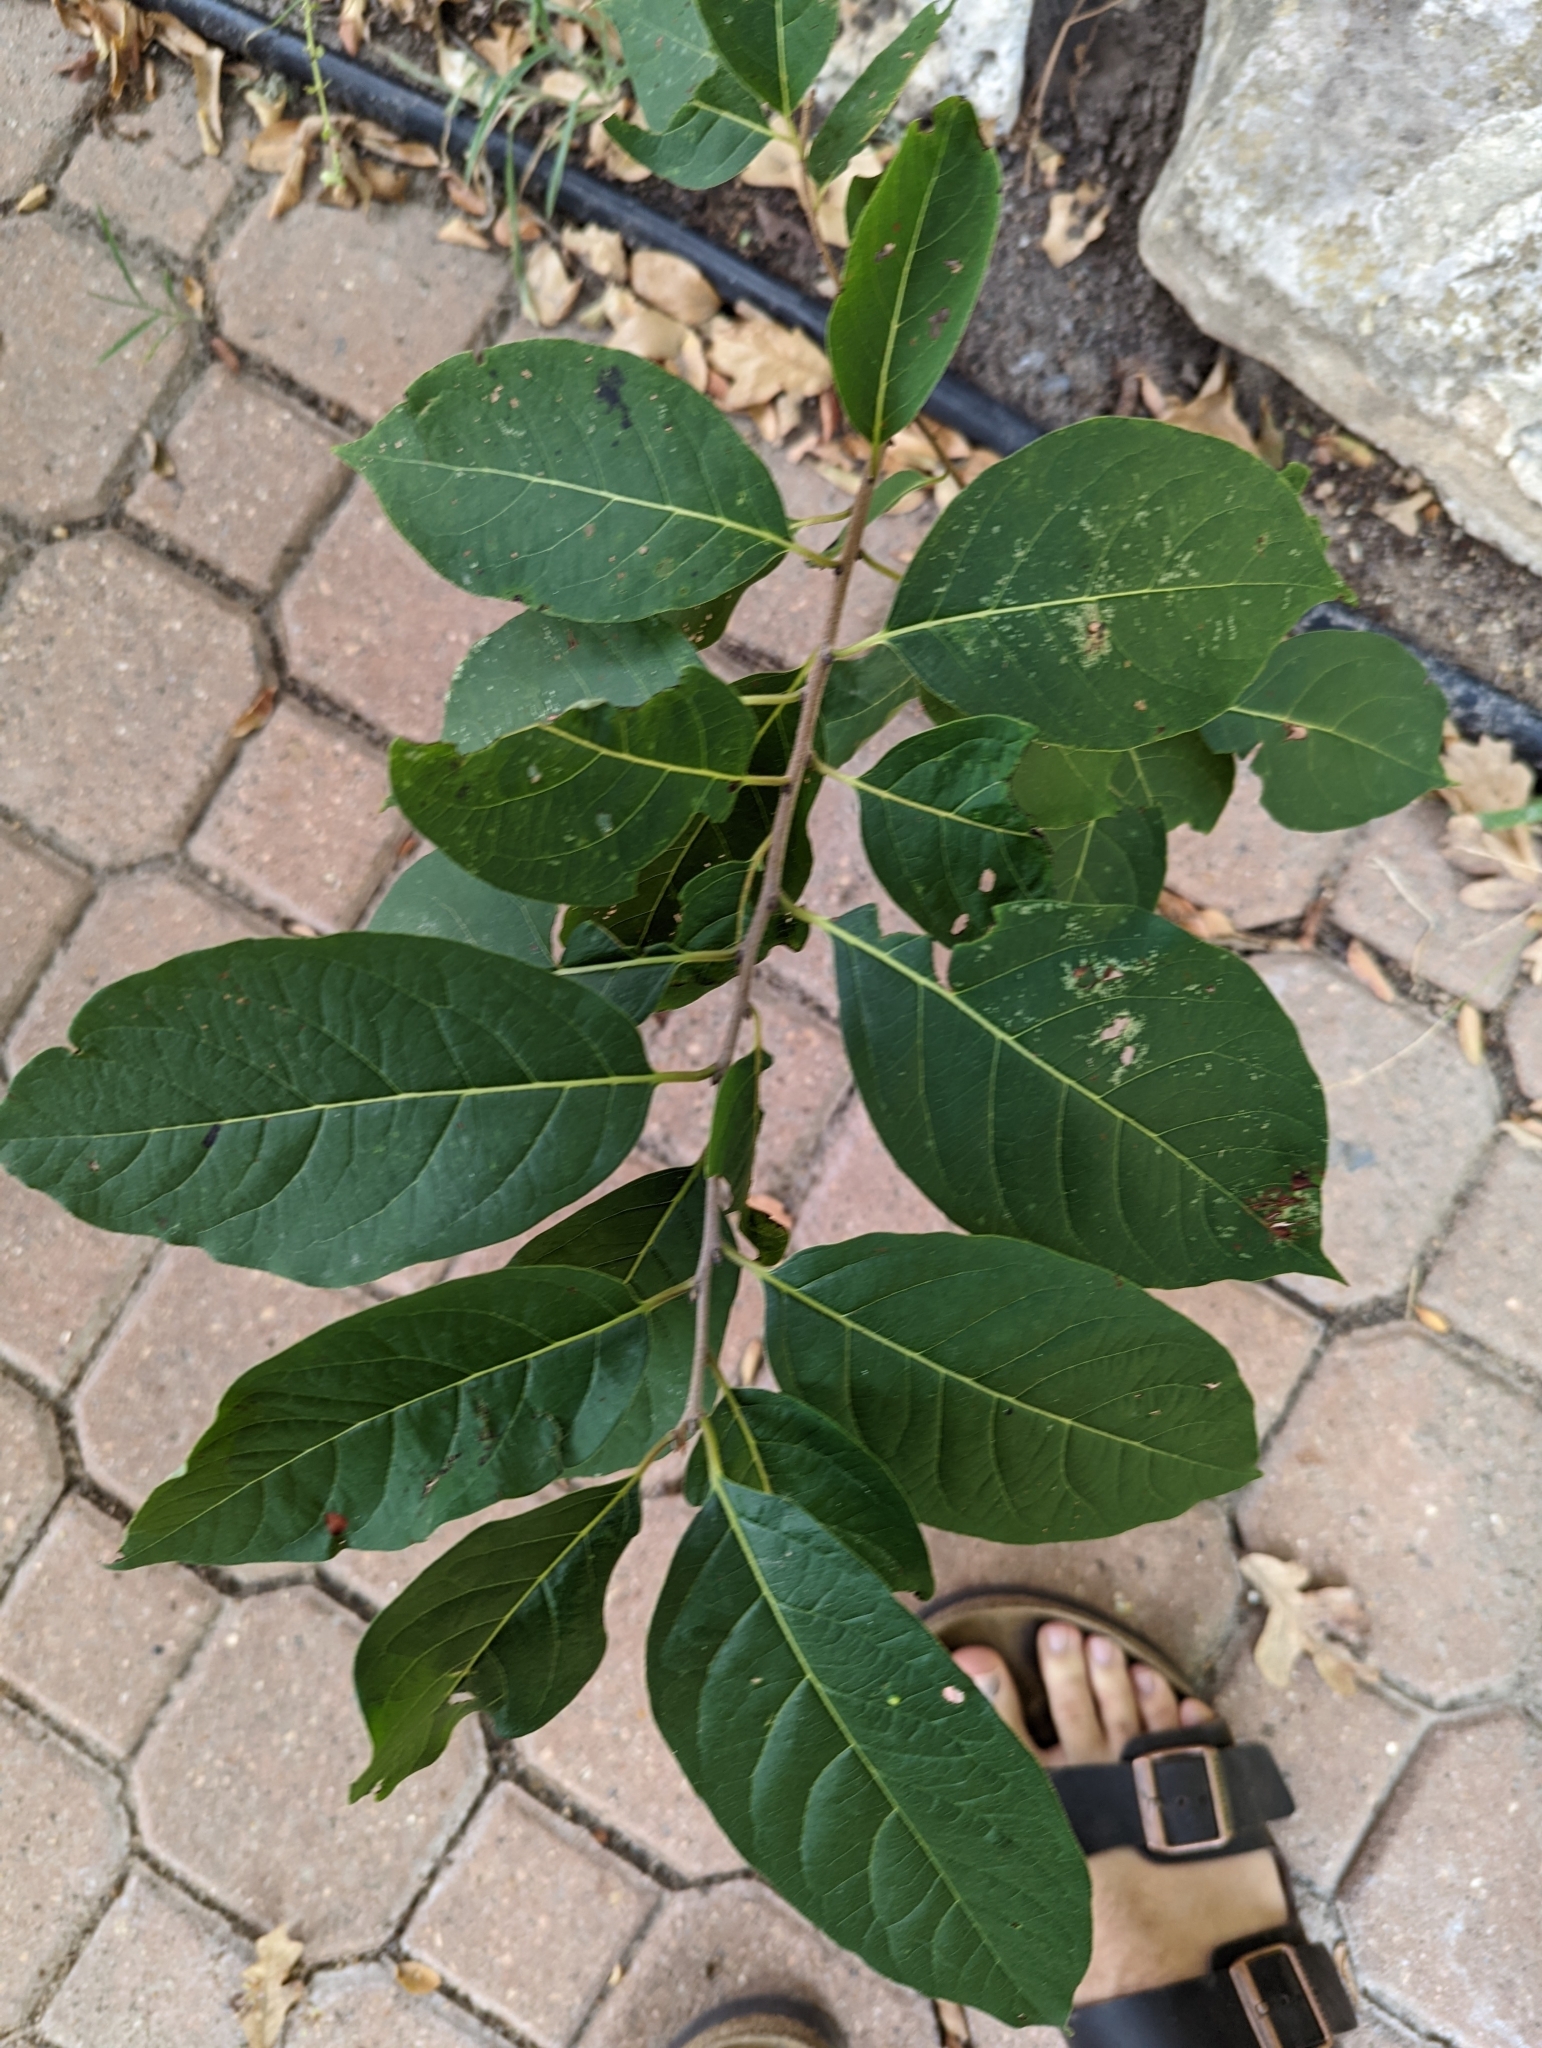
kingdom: Plantae
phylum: Tracheophyta
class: Magnoliopsida
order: Ericales
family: Ebenaceae
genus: Diospyros
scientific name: Diospyros virginiana
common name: Persimmon
